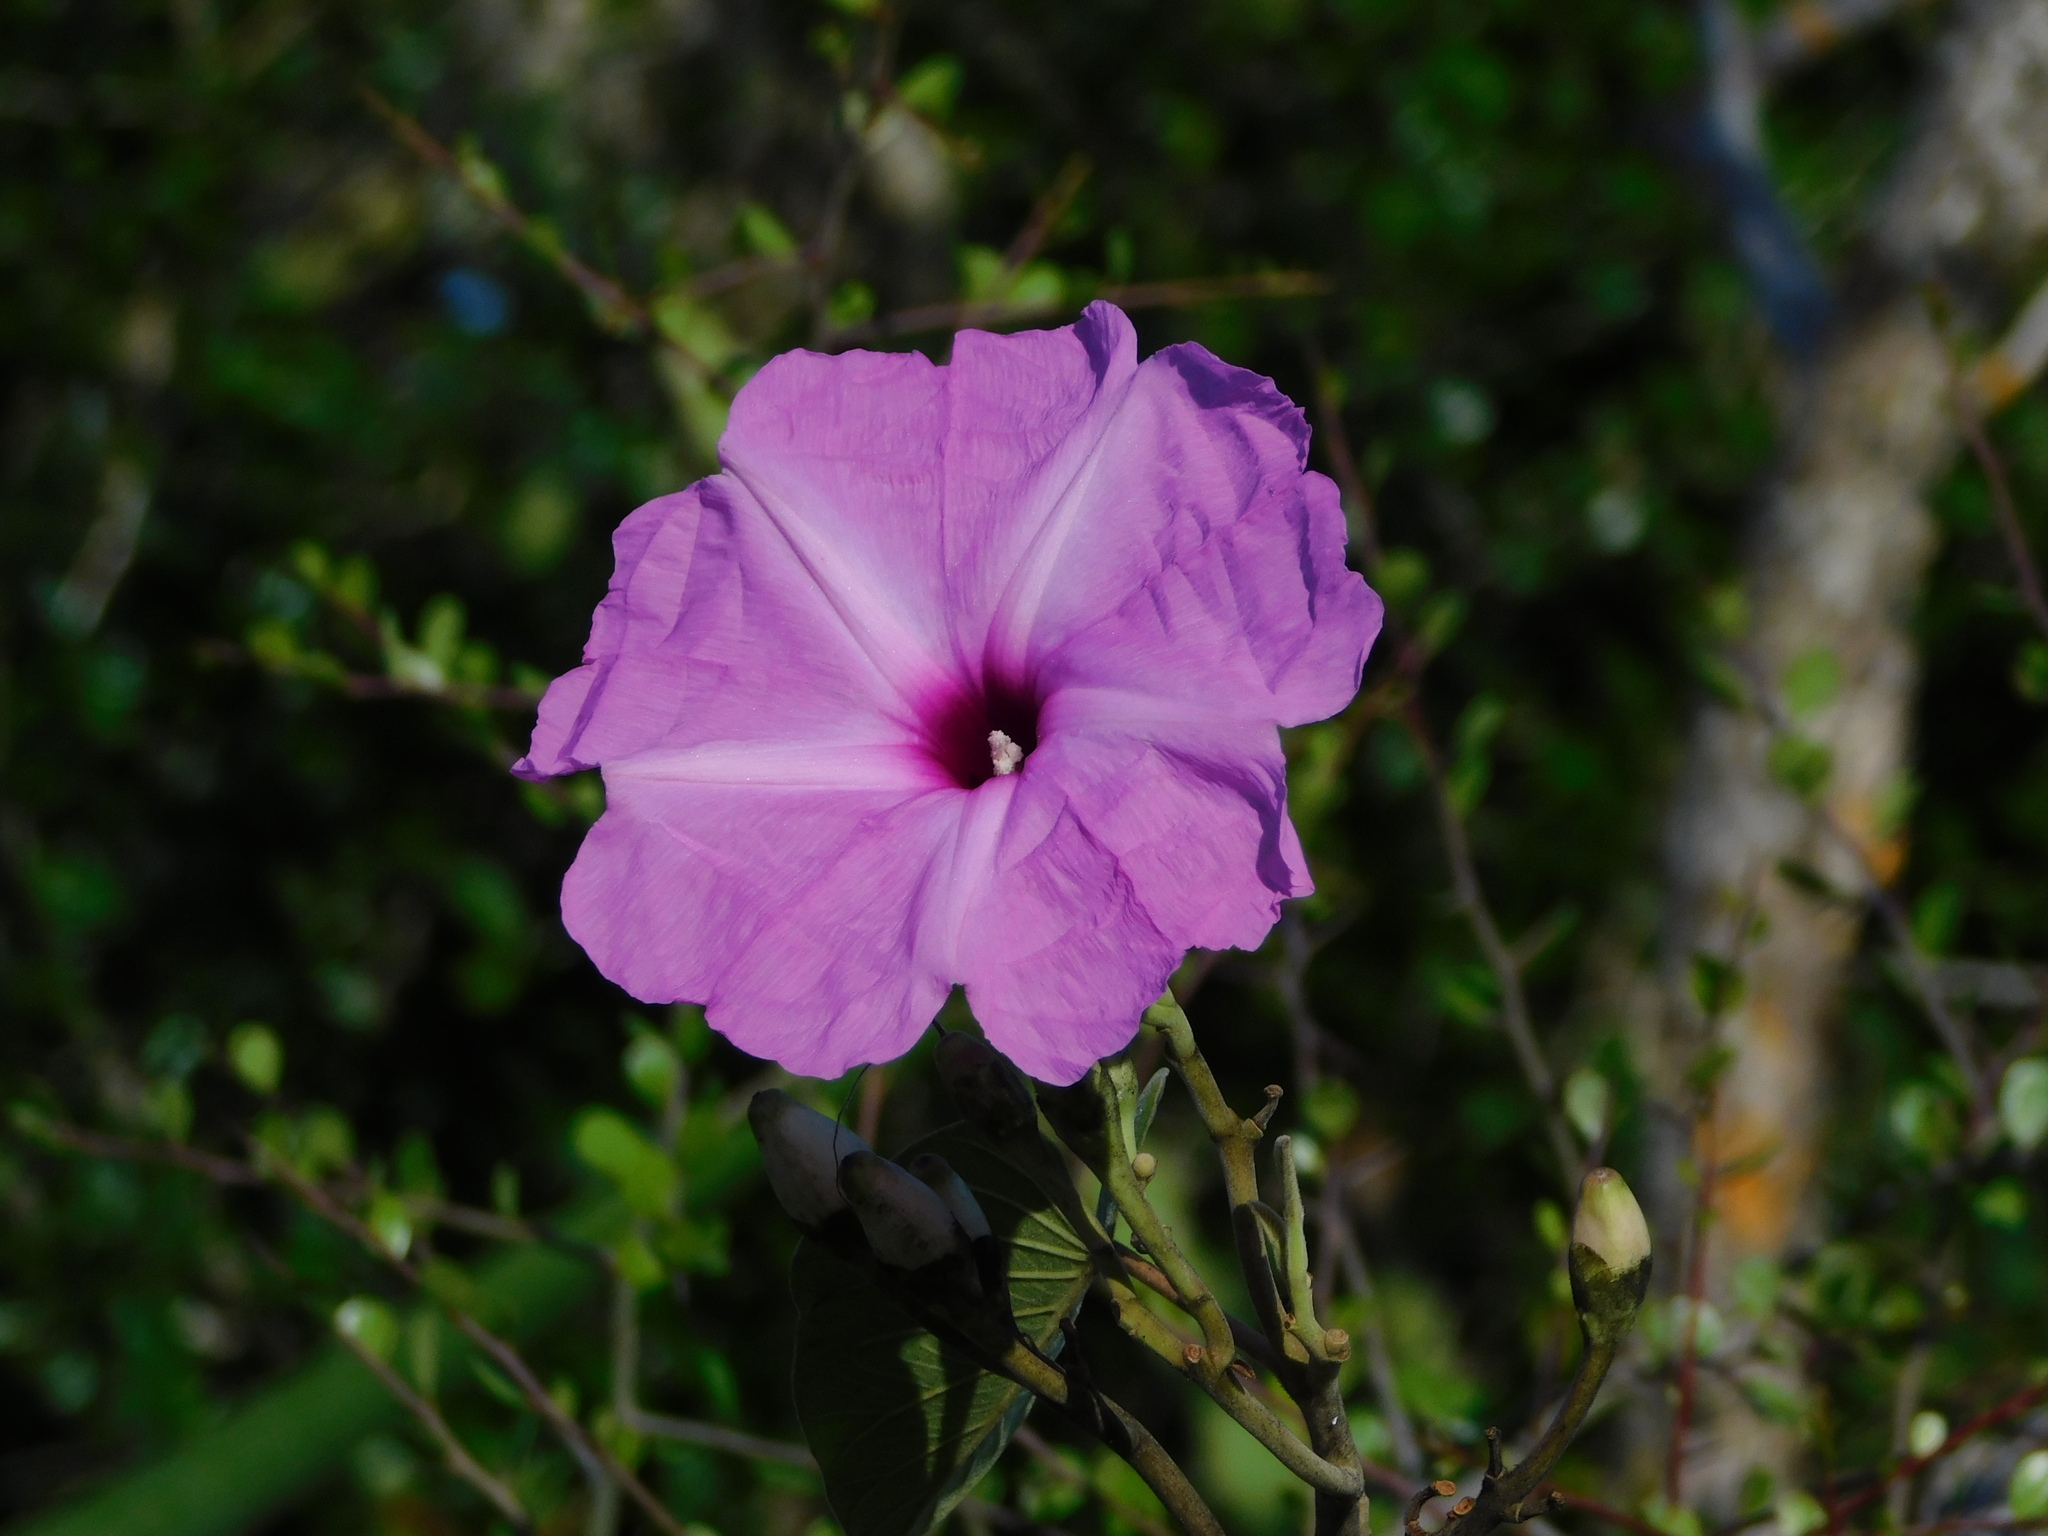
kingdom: Plantae
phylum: Tracheophyta
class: Magnoliopsida
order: Solanales
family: Convolvulaceae
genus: Ipomoea
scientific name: Ipomoea carnea
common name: Morning-glory
